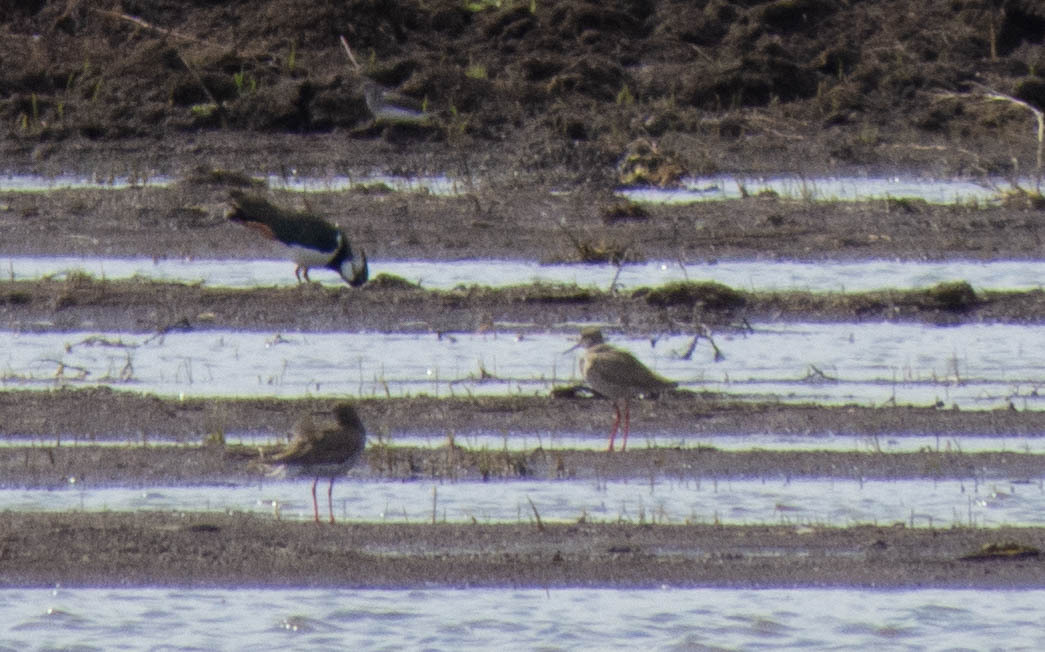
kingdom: Animalia
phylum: Chordata
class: Aves
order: Charadriiformes
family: Scolopacidae
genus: Tringa
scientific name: Tringa totanus
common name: Common redshank
